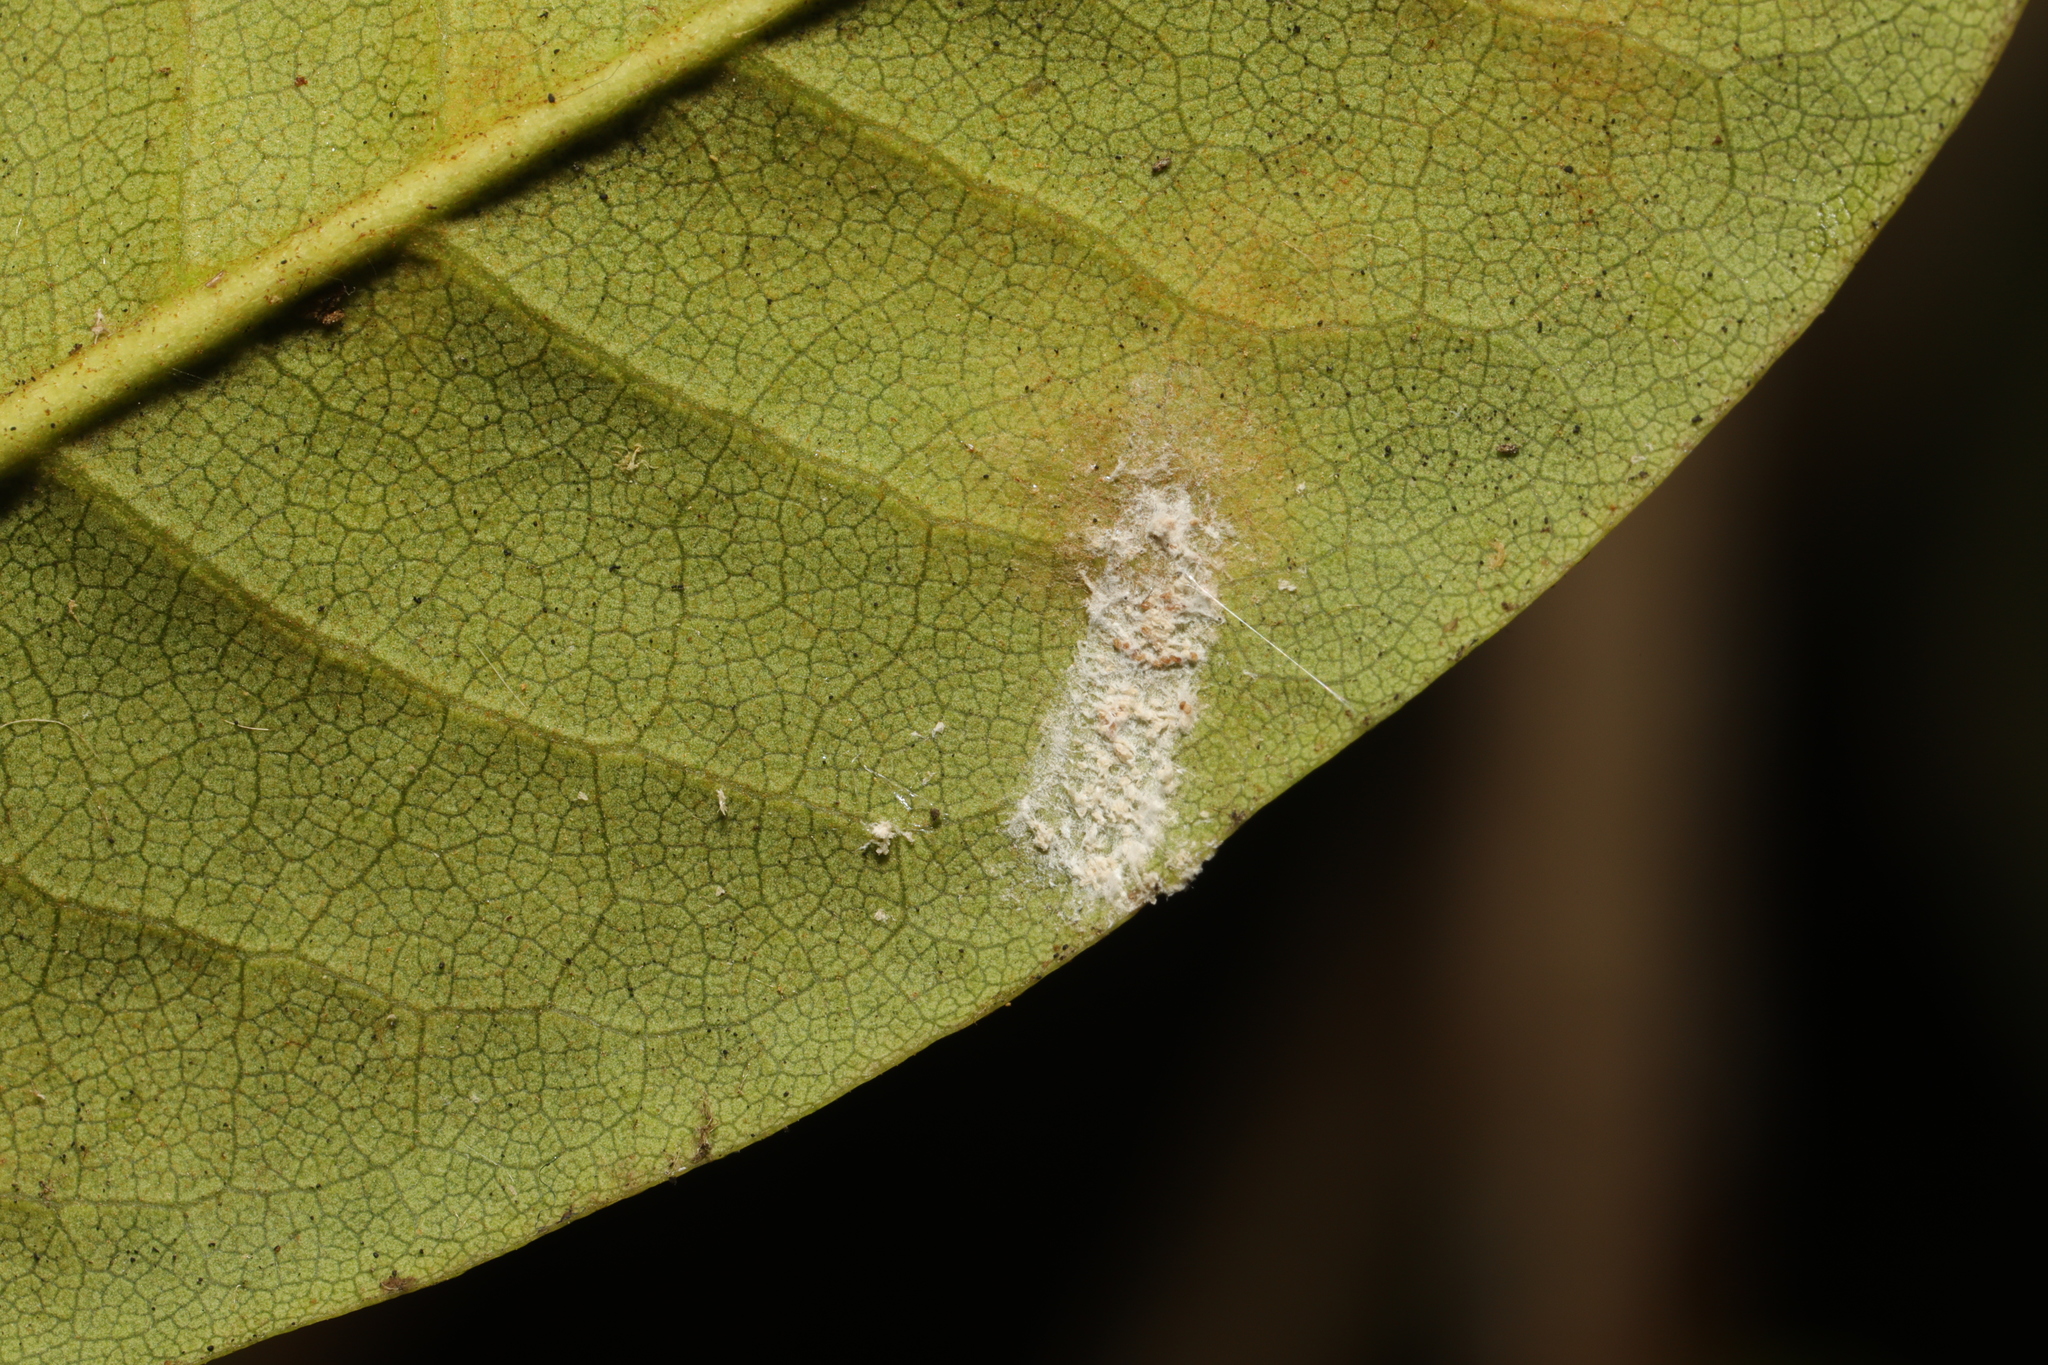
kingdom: Animalia
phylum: Arthropoda
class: Insecta
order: Hemiptera
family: Coccidae
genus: Pulvinaria
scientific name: Pulvinaria floccifera
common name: Cottony camellia scale
